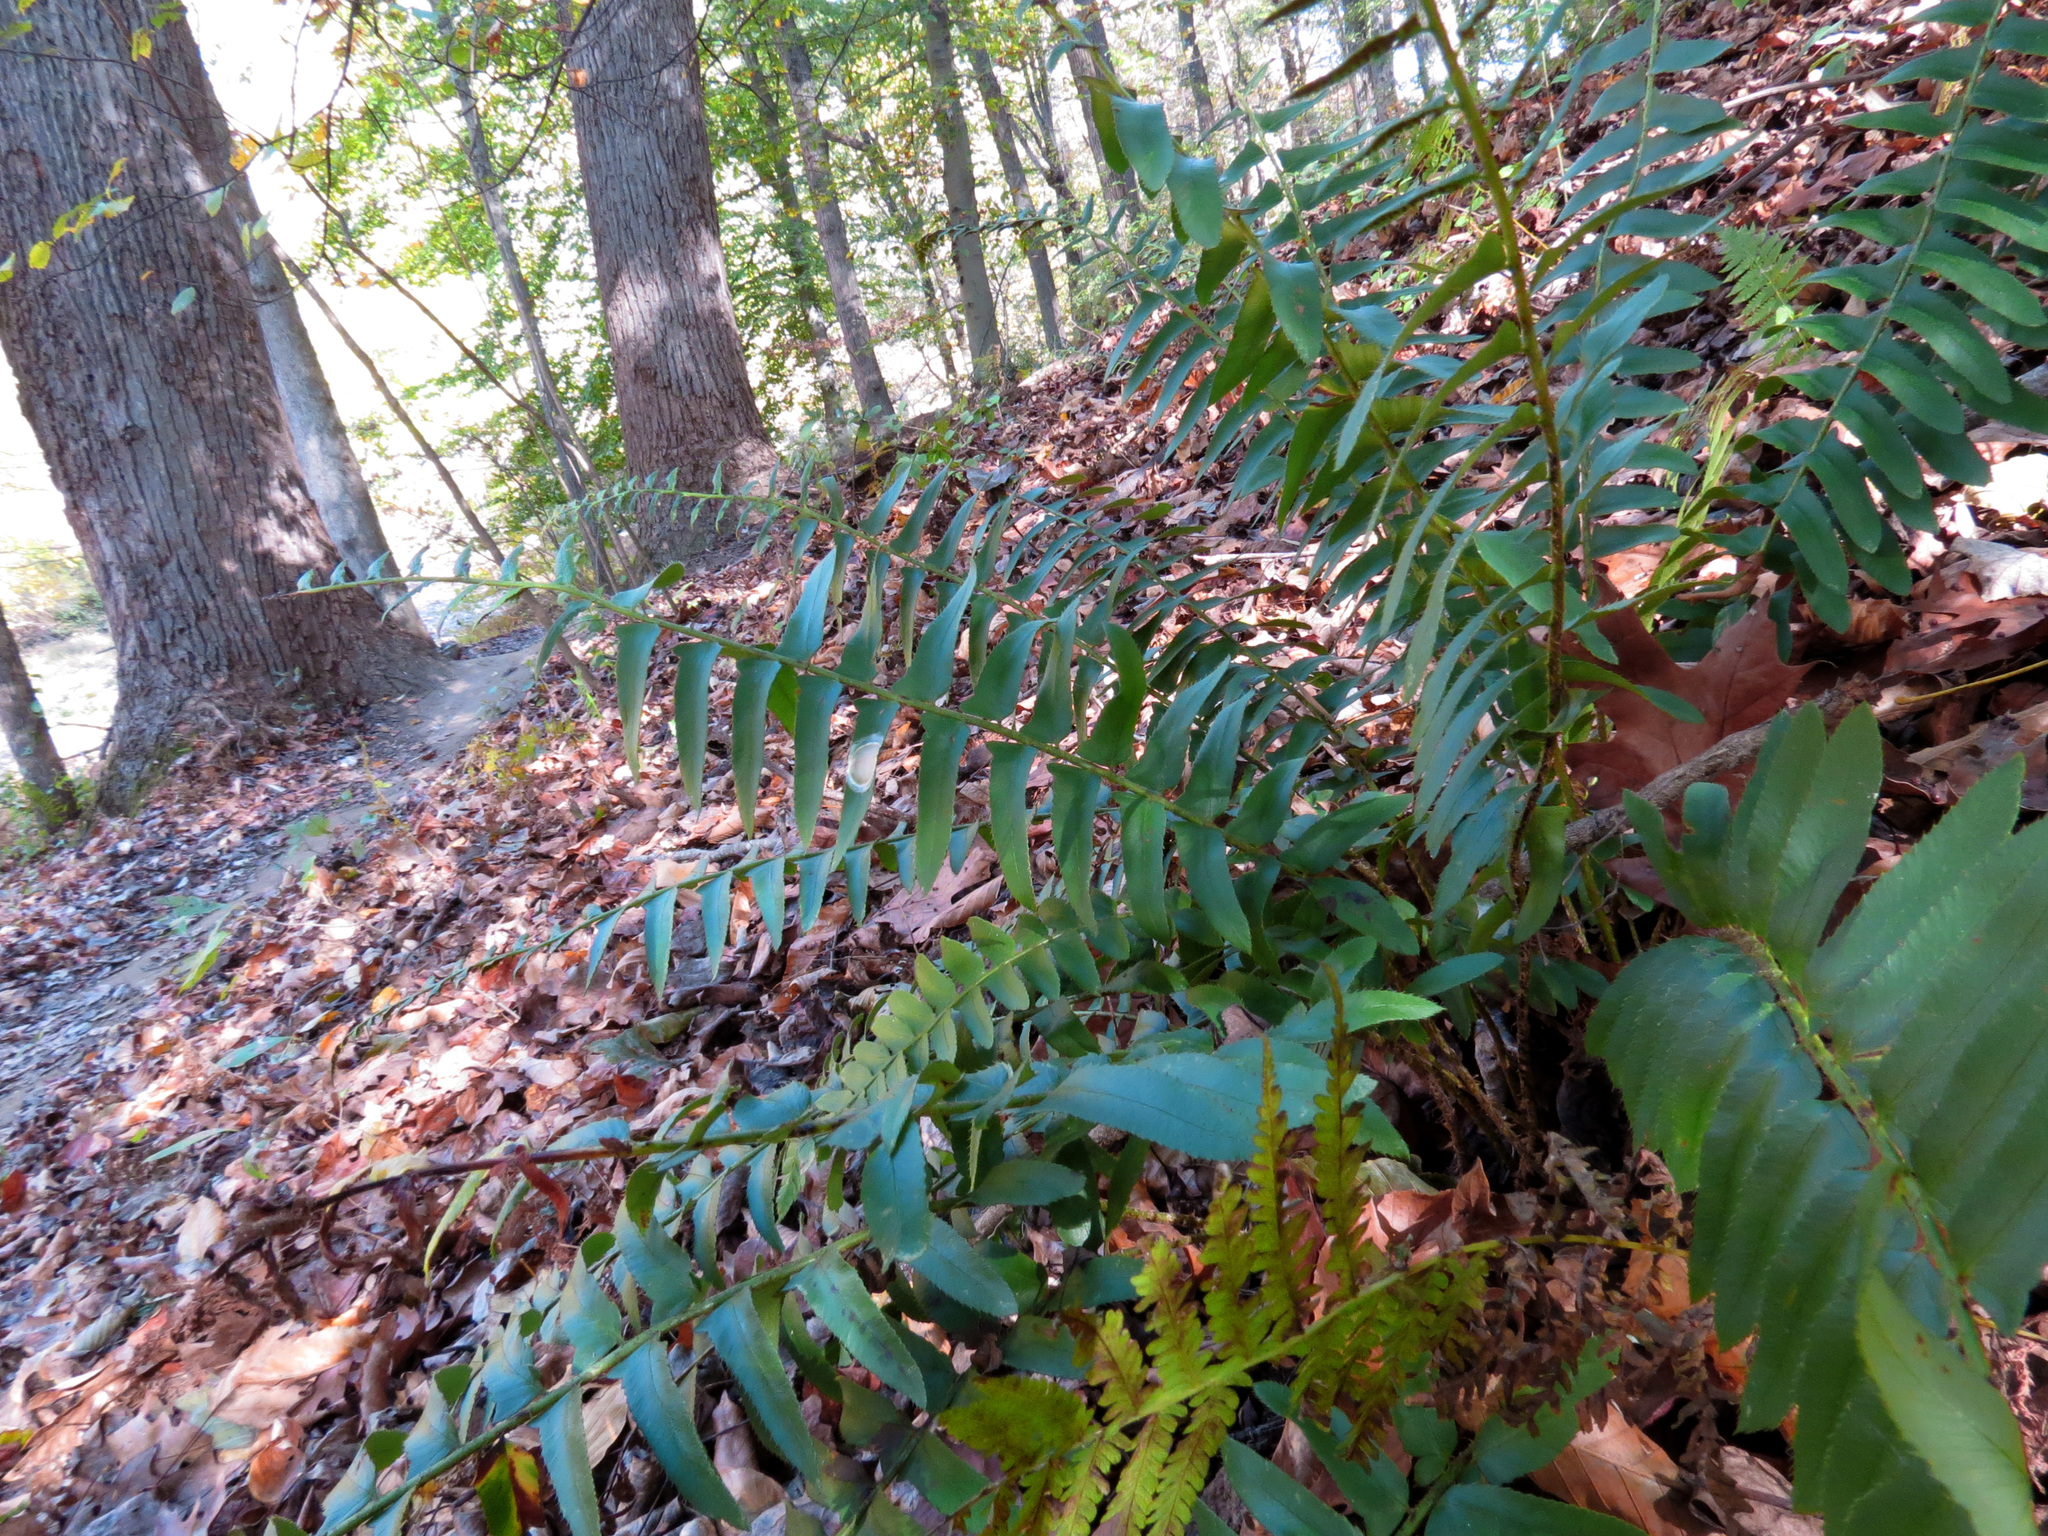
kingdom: Plantae
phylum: Tracheophyta
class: Polypodiopsida
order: Polypodiales
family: Dryopteridaceae
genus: Polystichum
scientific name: Polystichum acrostichoides
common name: Christmas fern
